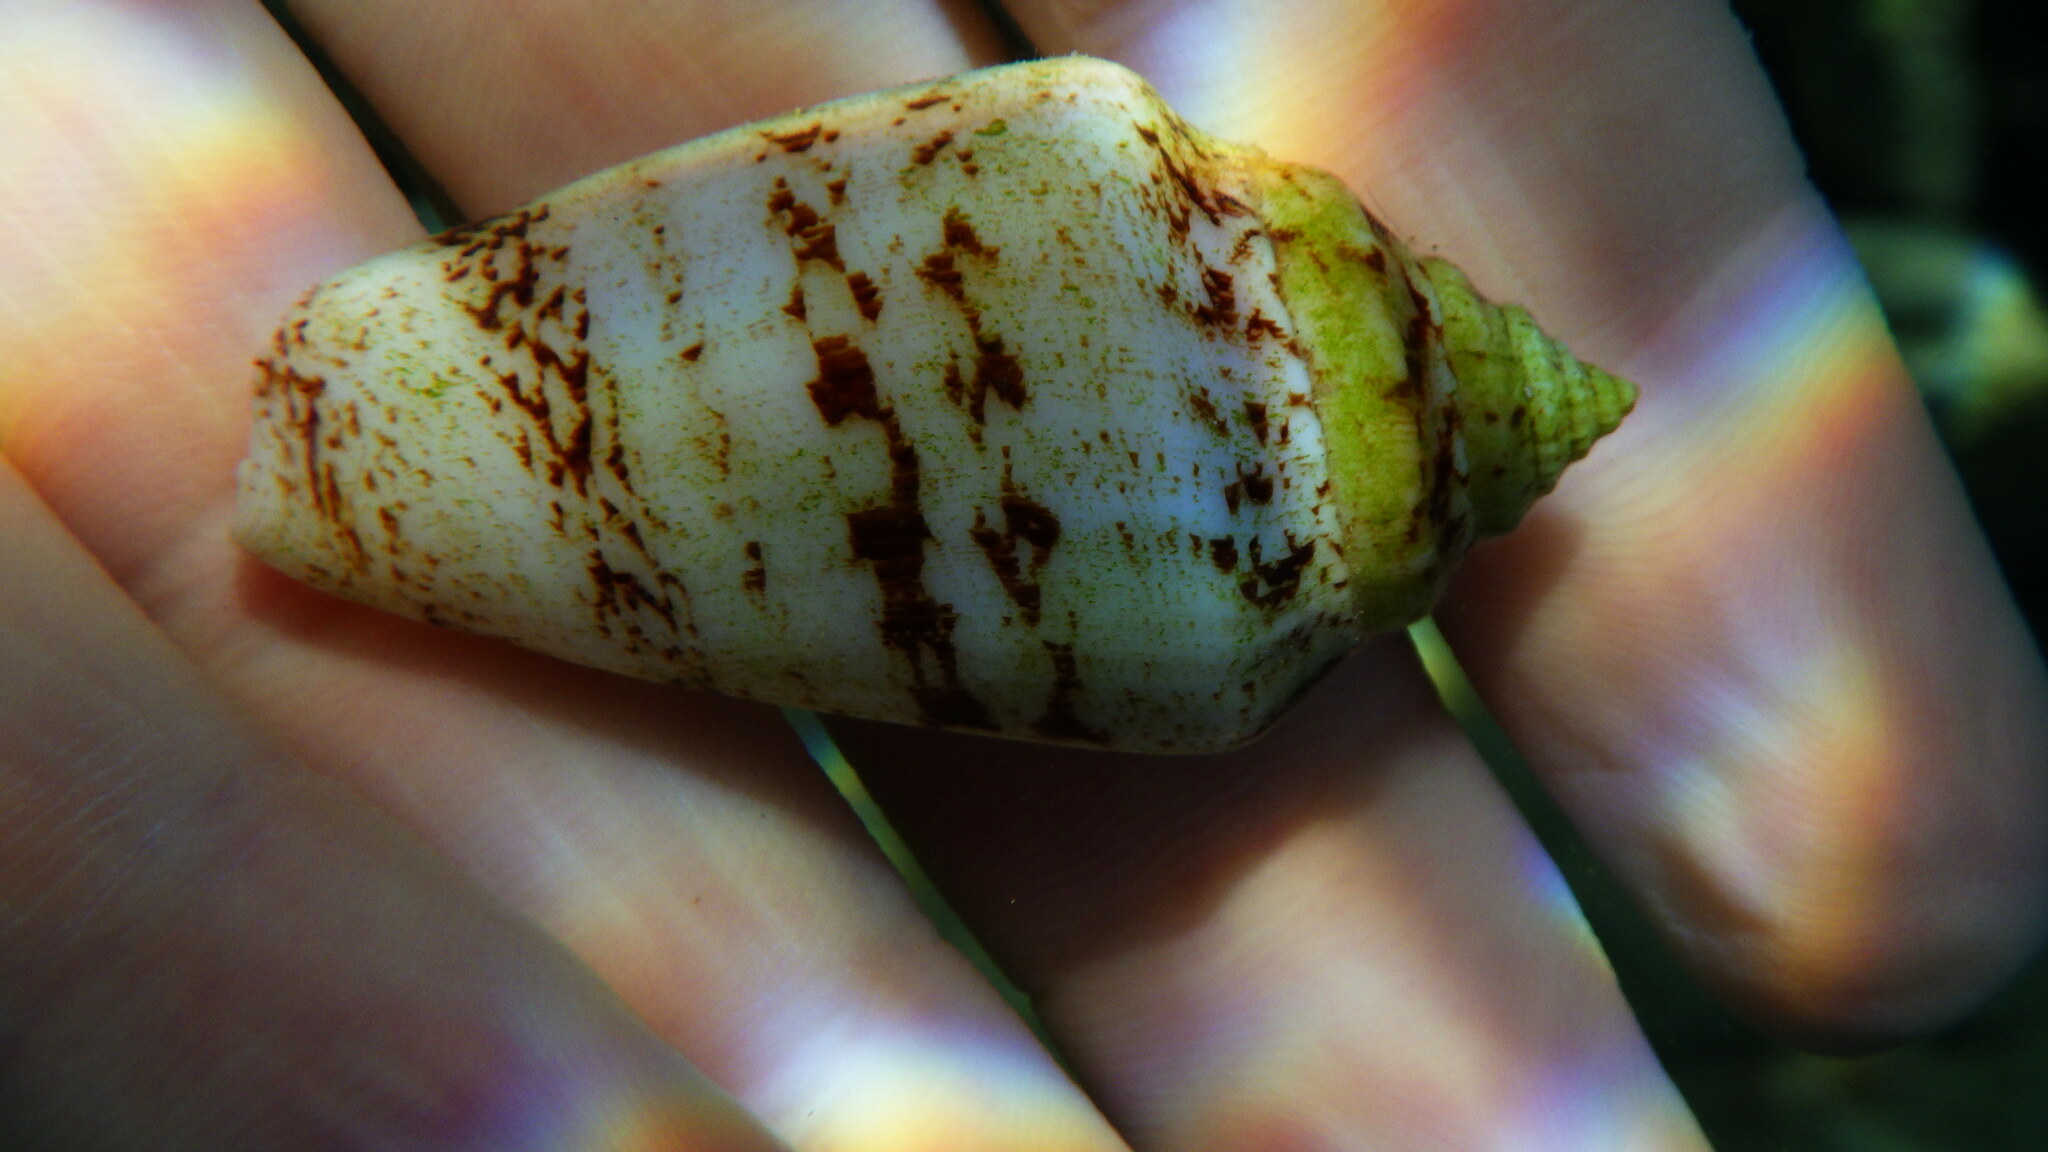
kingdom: Animalia
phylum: Mollusca
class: Gastropoda
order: Littorinimorpha
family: Strombidae
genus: Conomurex
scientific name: Conomurex persicus
